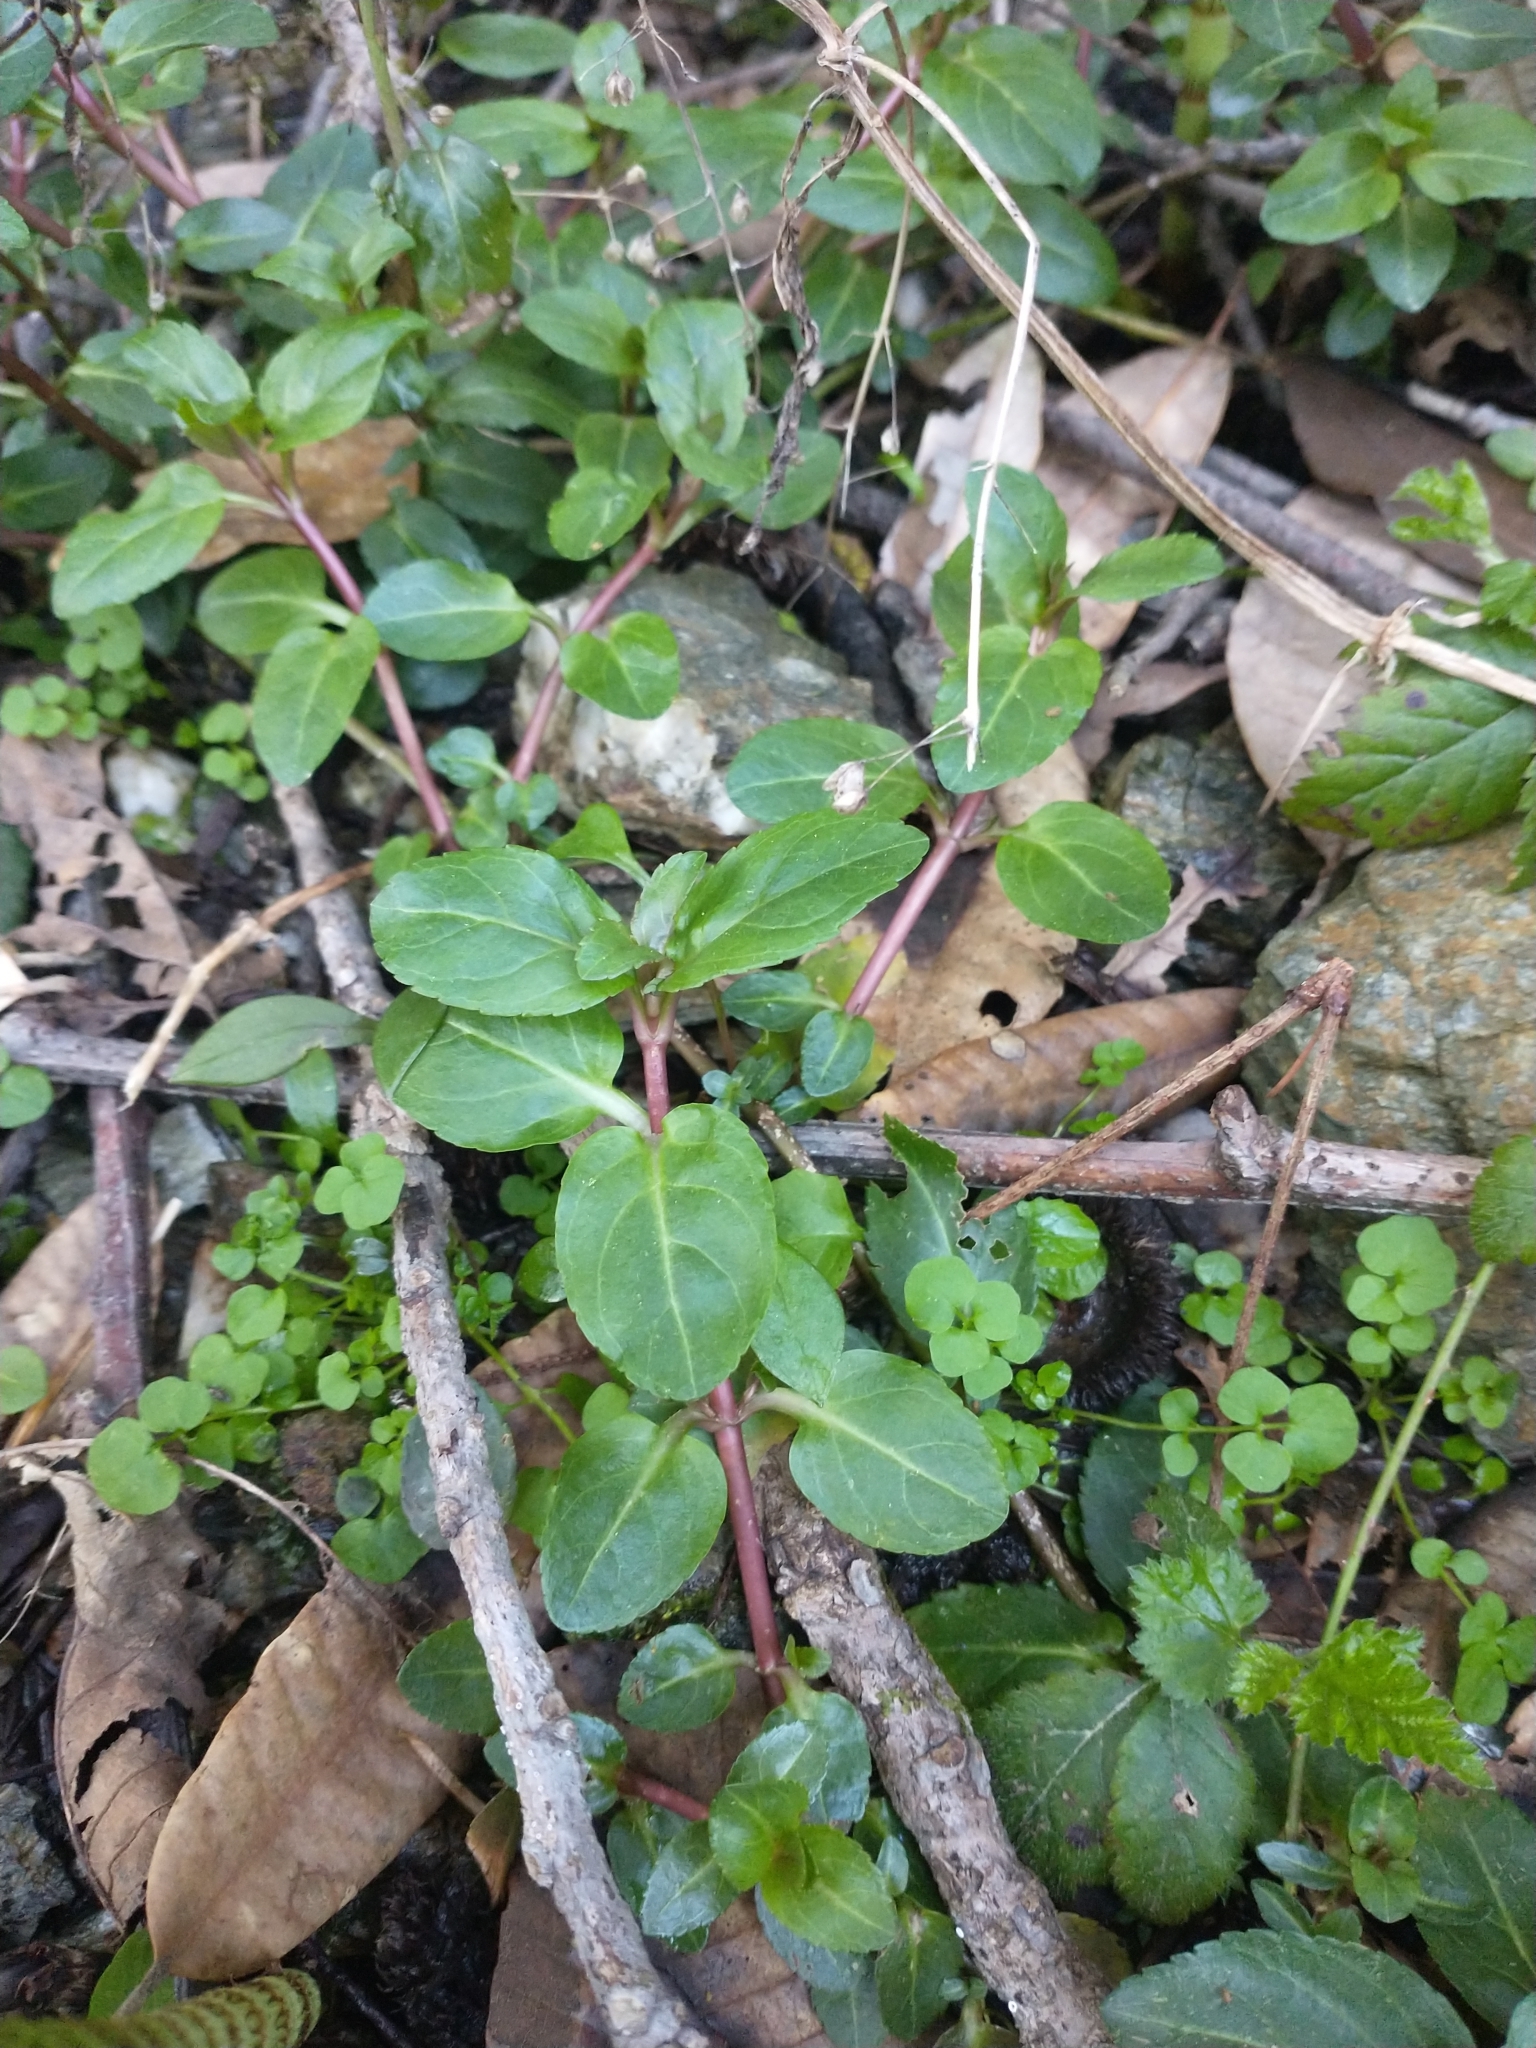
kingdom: Plantae
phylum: Tracheophyta
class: Magnoliopsida
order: Lamiales
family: Plantaginaceae
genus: Veronica
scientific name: Veronica americana
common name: American brooklime
